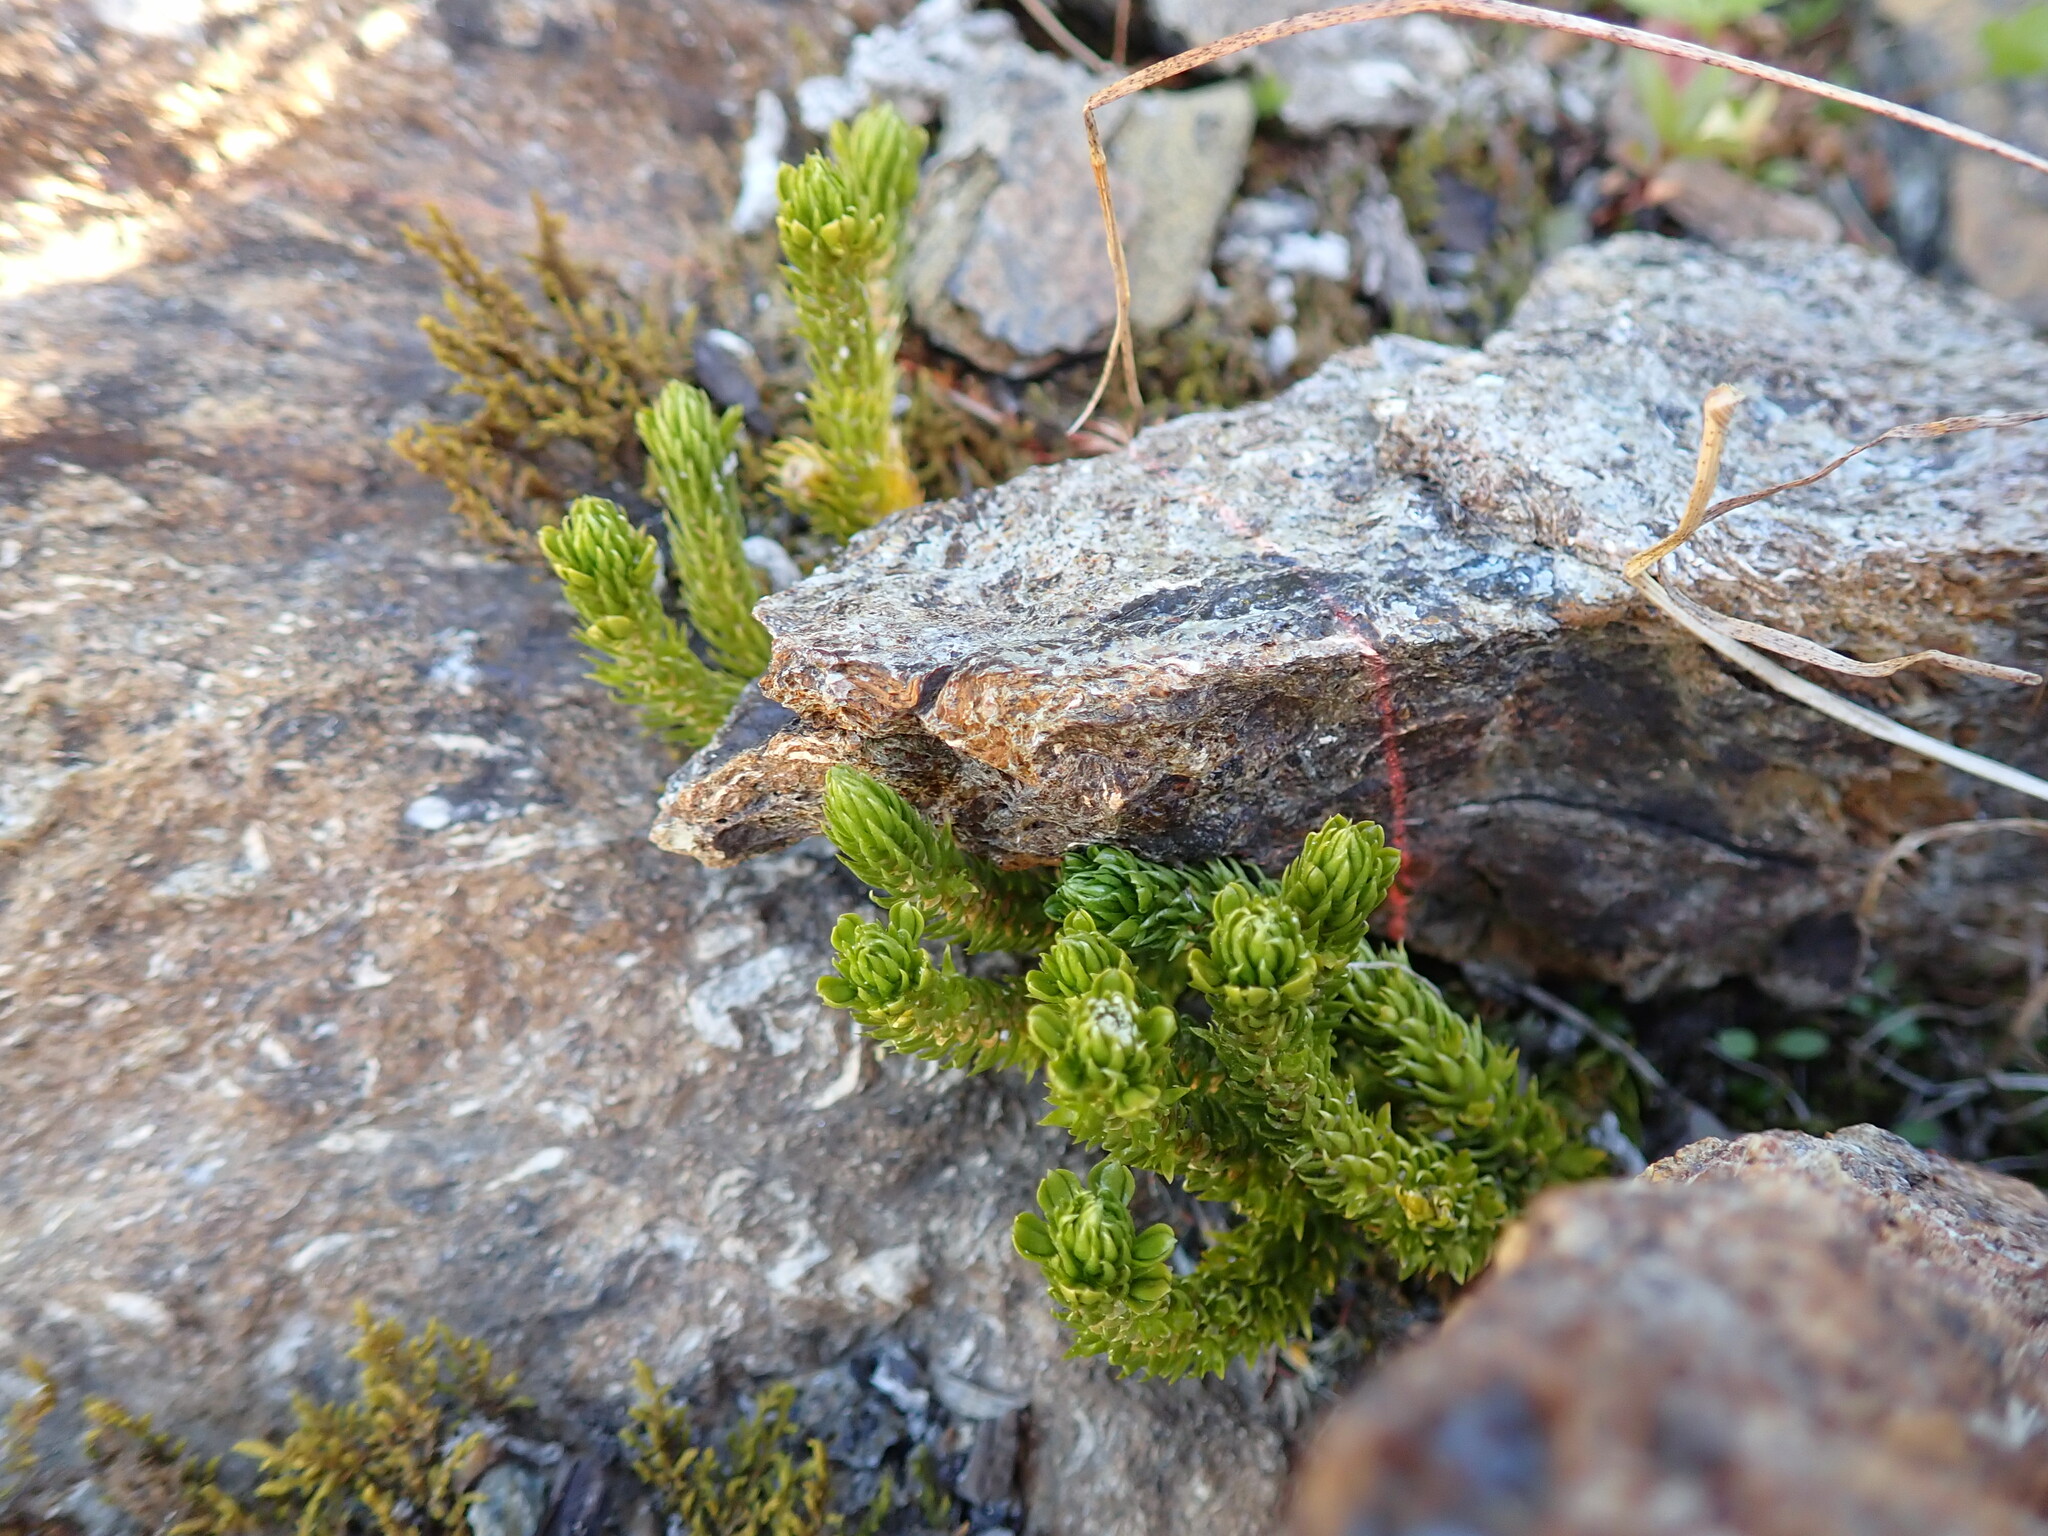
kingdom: Plantae
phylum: Tracheophyta
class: Lycopodiopsida
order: Lycopodiales
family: Lycopodiaceae
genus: Huperzia
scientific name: Huperzia continentalis
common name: Continental firmoss
